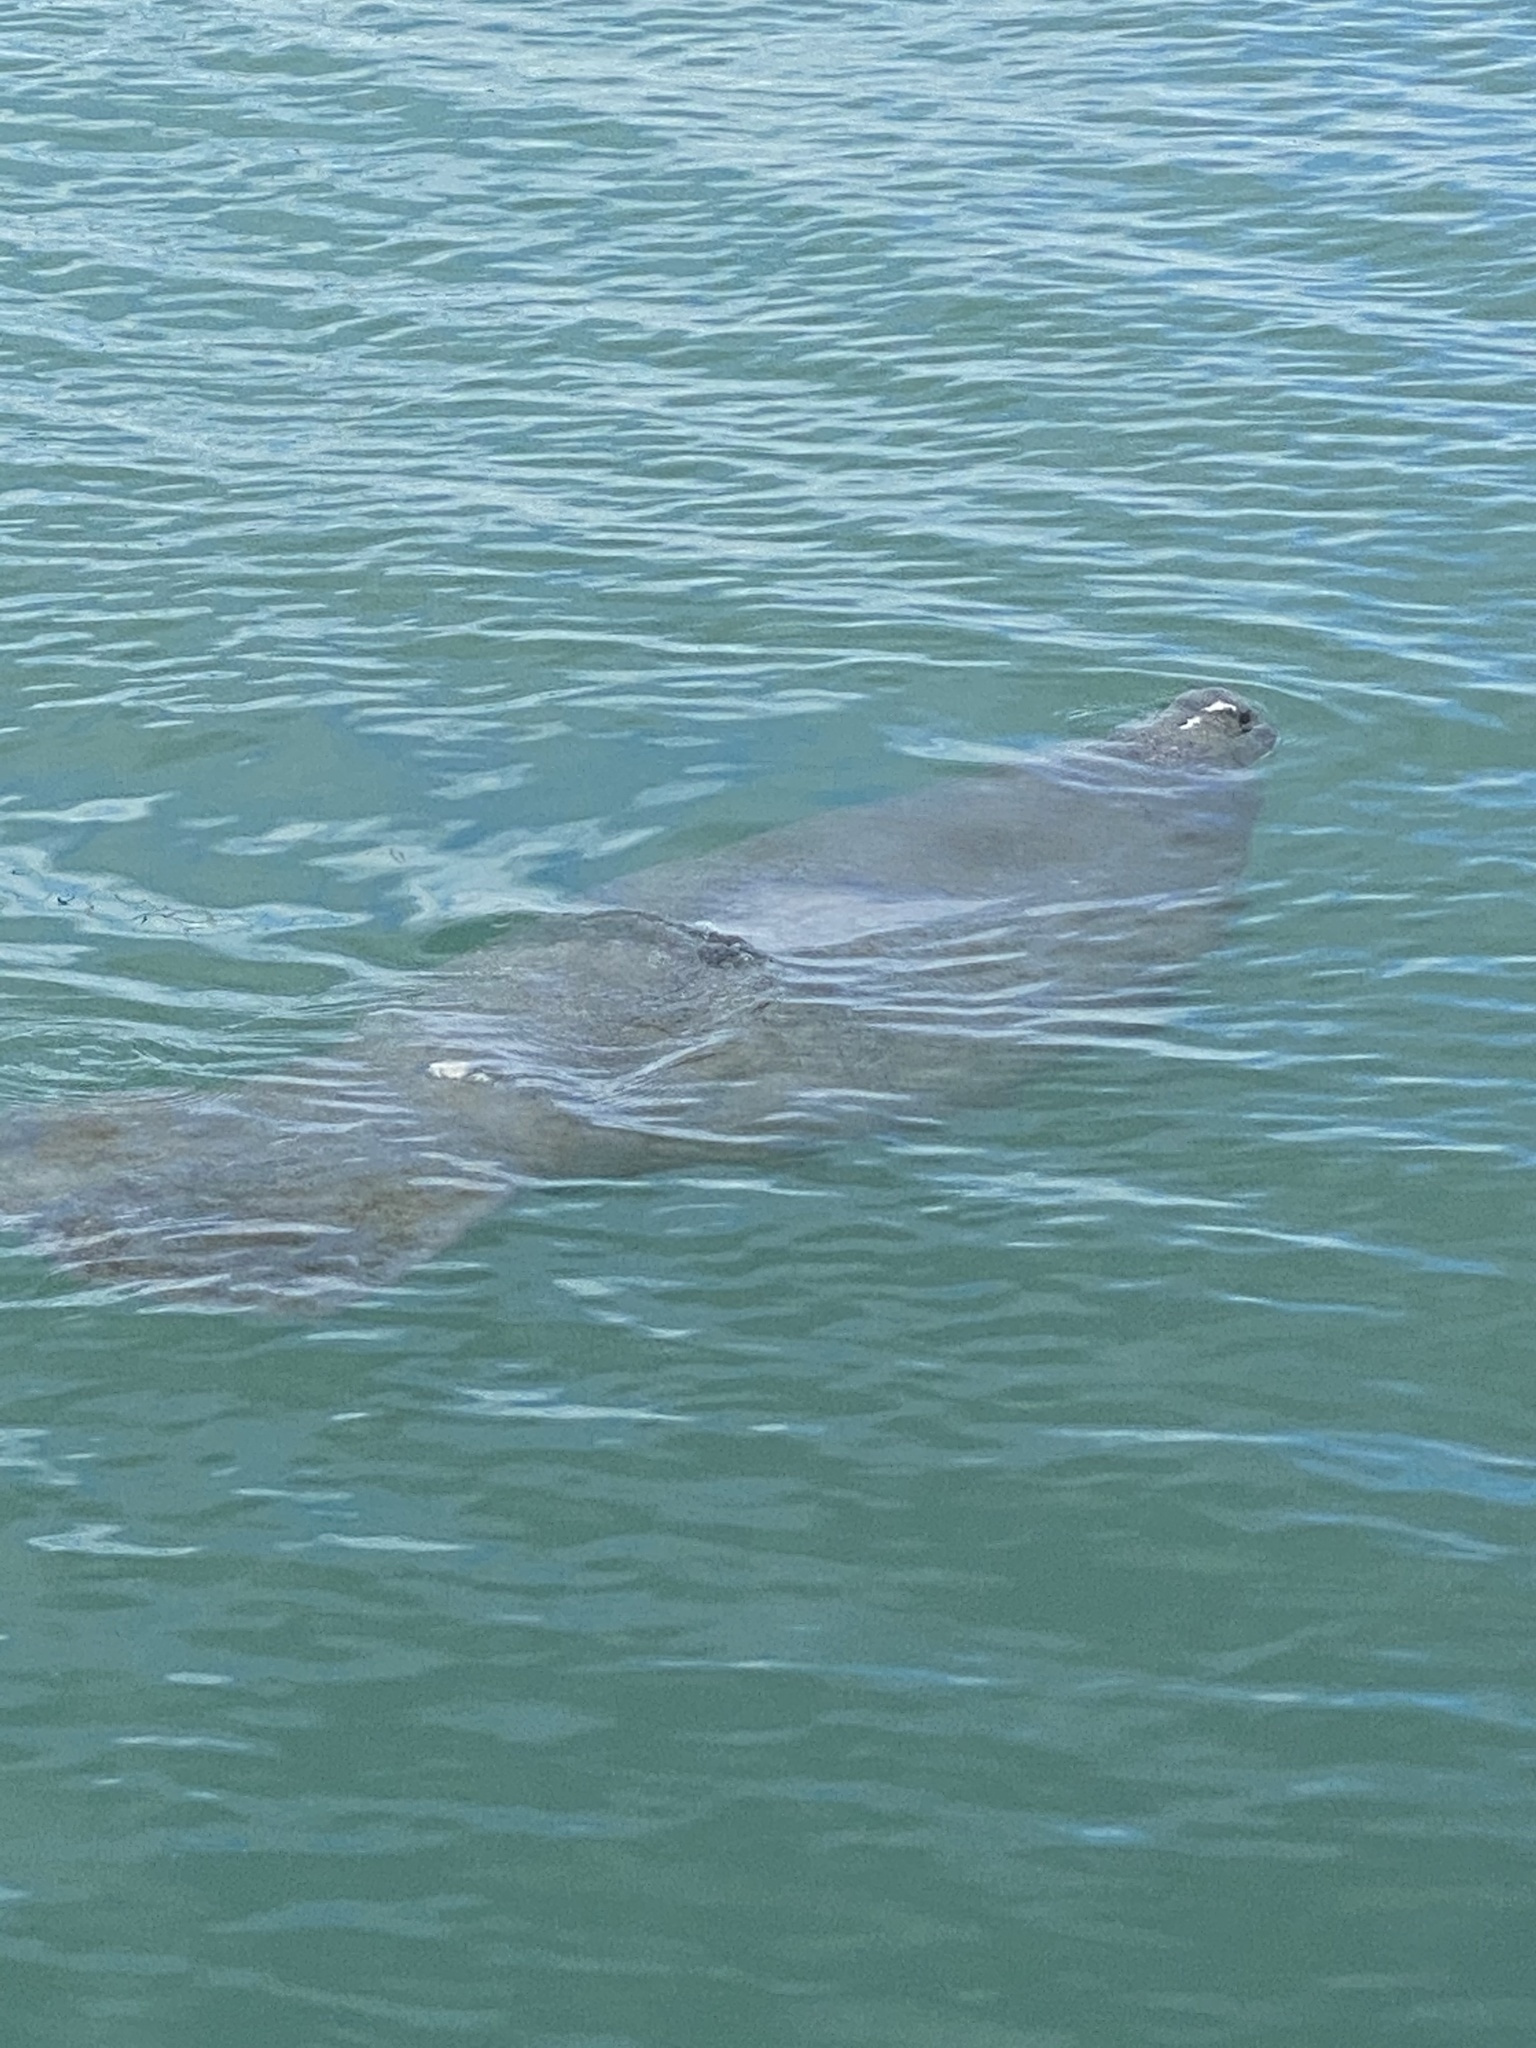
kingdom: Animalia
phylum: Chordata
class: Mammalia
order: Sirenia
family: Trichechidae
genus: Trichechus
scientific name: Trichechus manatus
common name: West indian manatee
